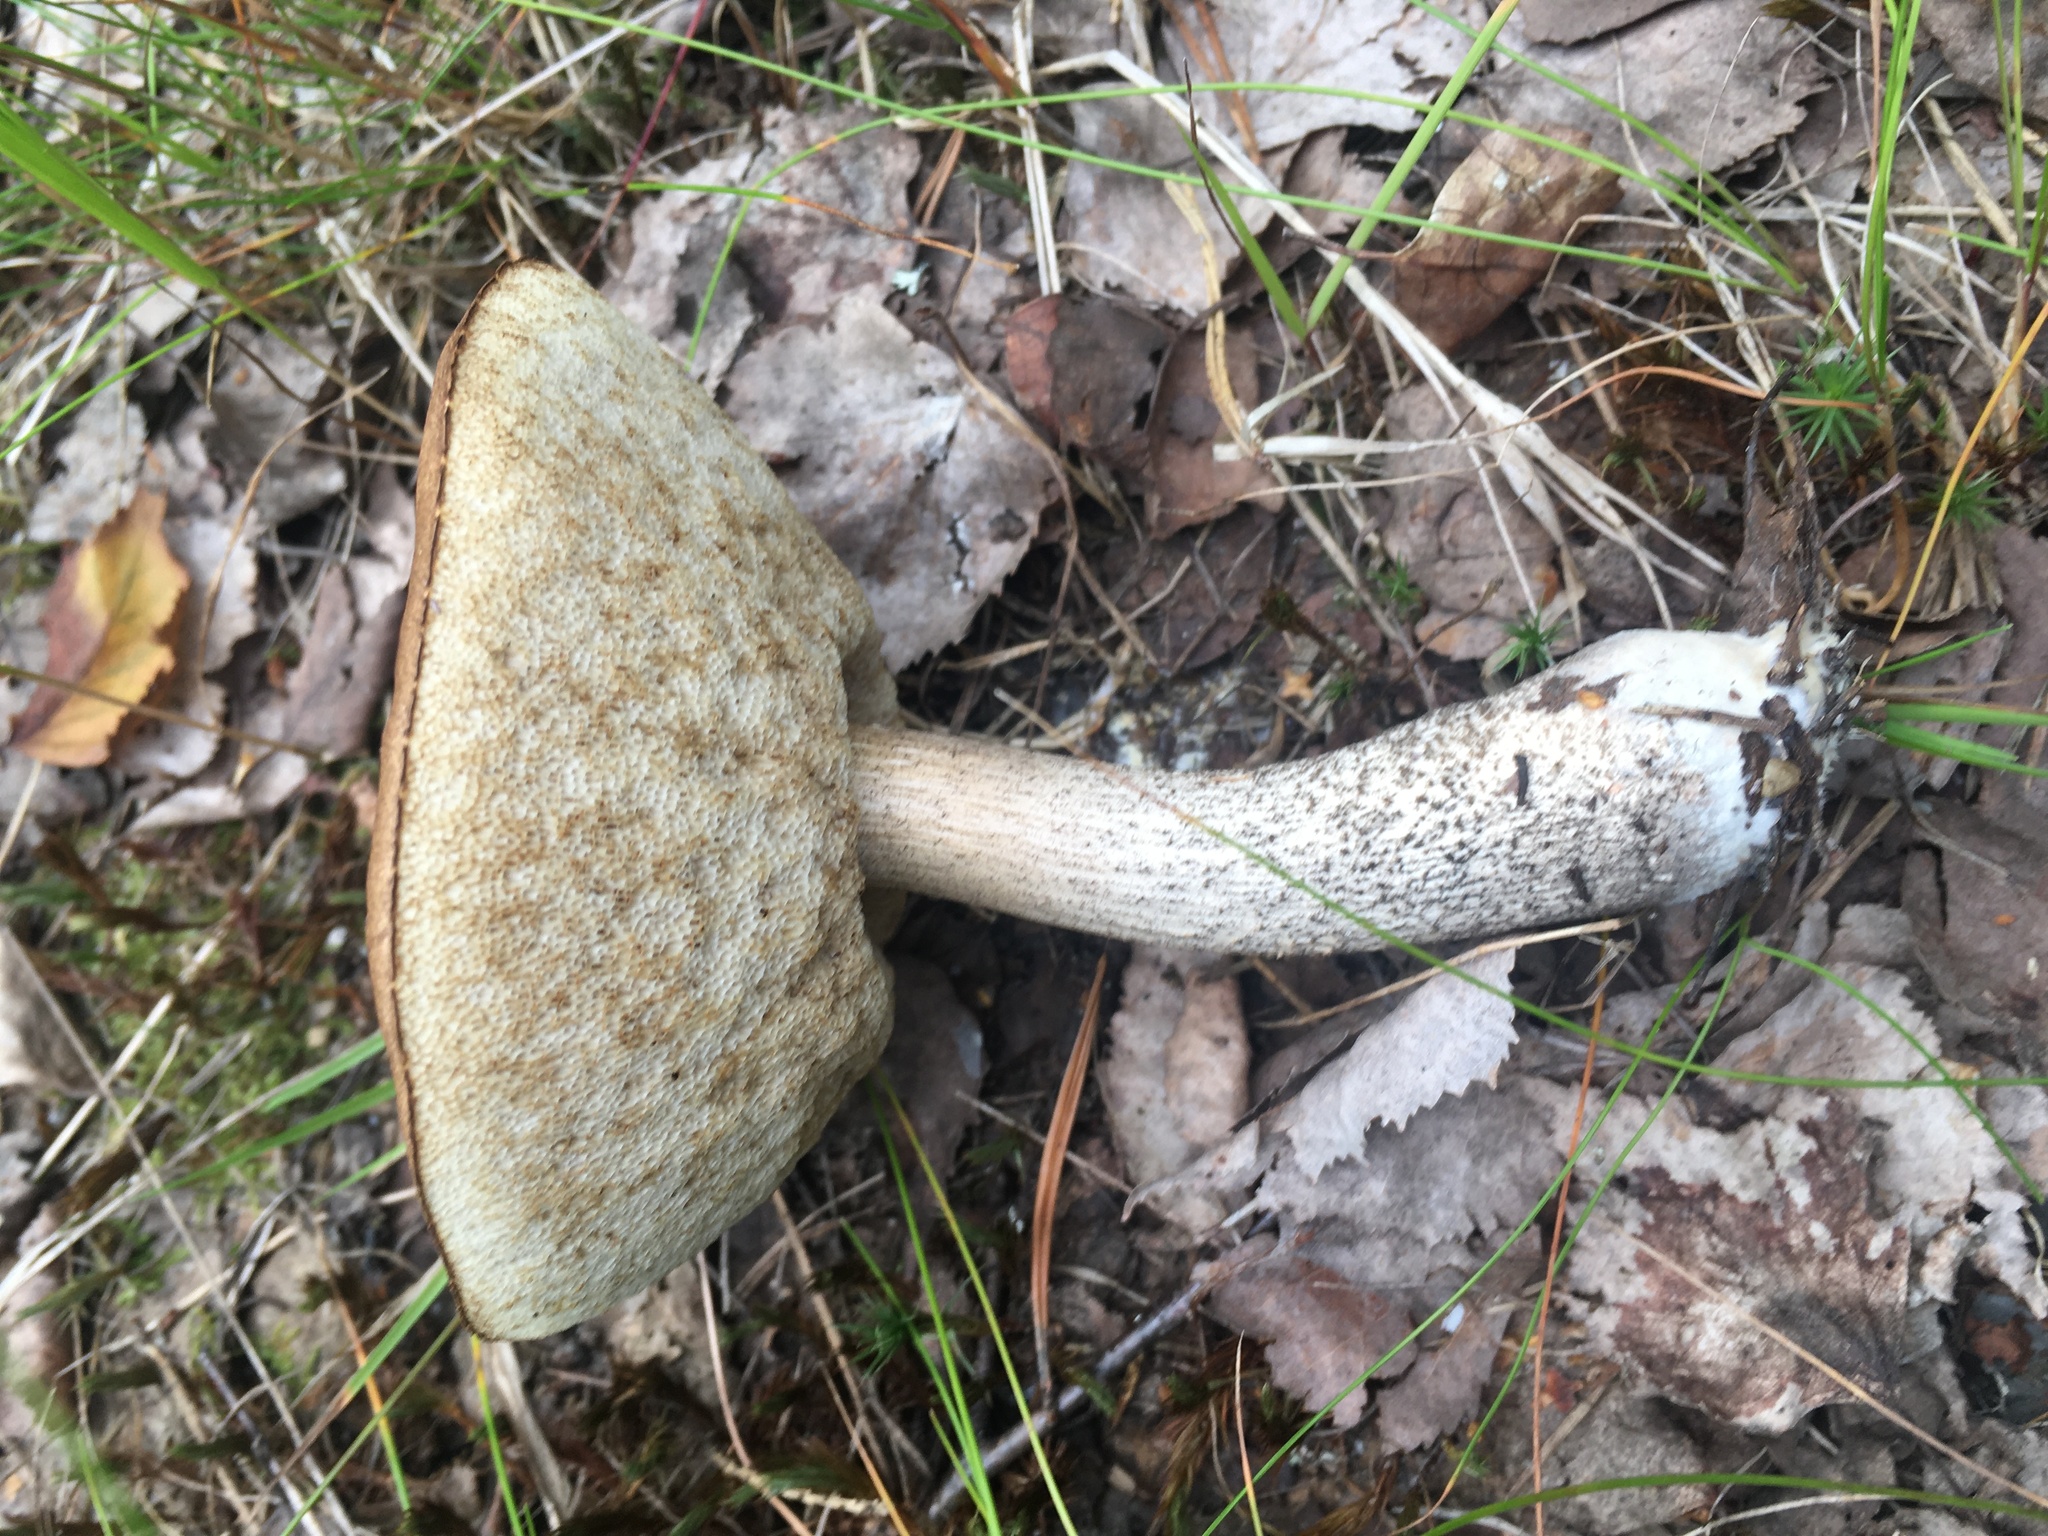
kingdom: Fungi
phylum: Basidiomycota
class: Agaricomycetes
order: Boletales
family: Boletaceae
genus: Leccinum
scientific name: Leccinum scabrum
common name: Blushing bolete
